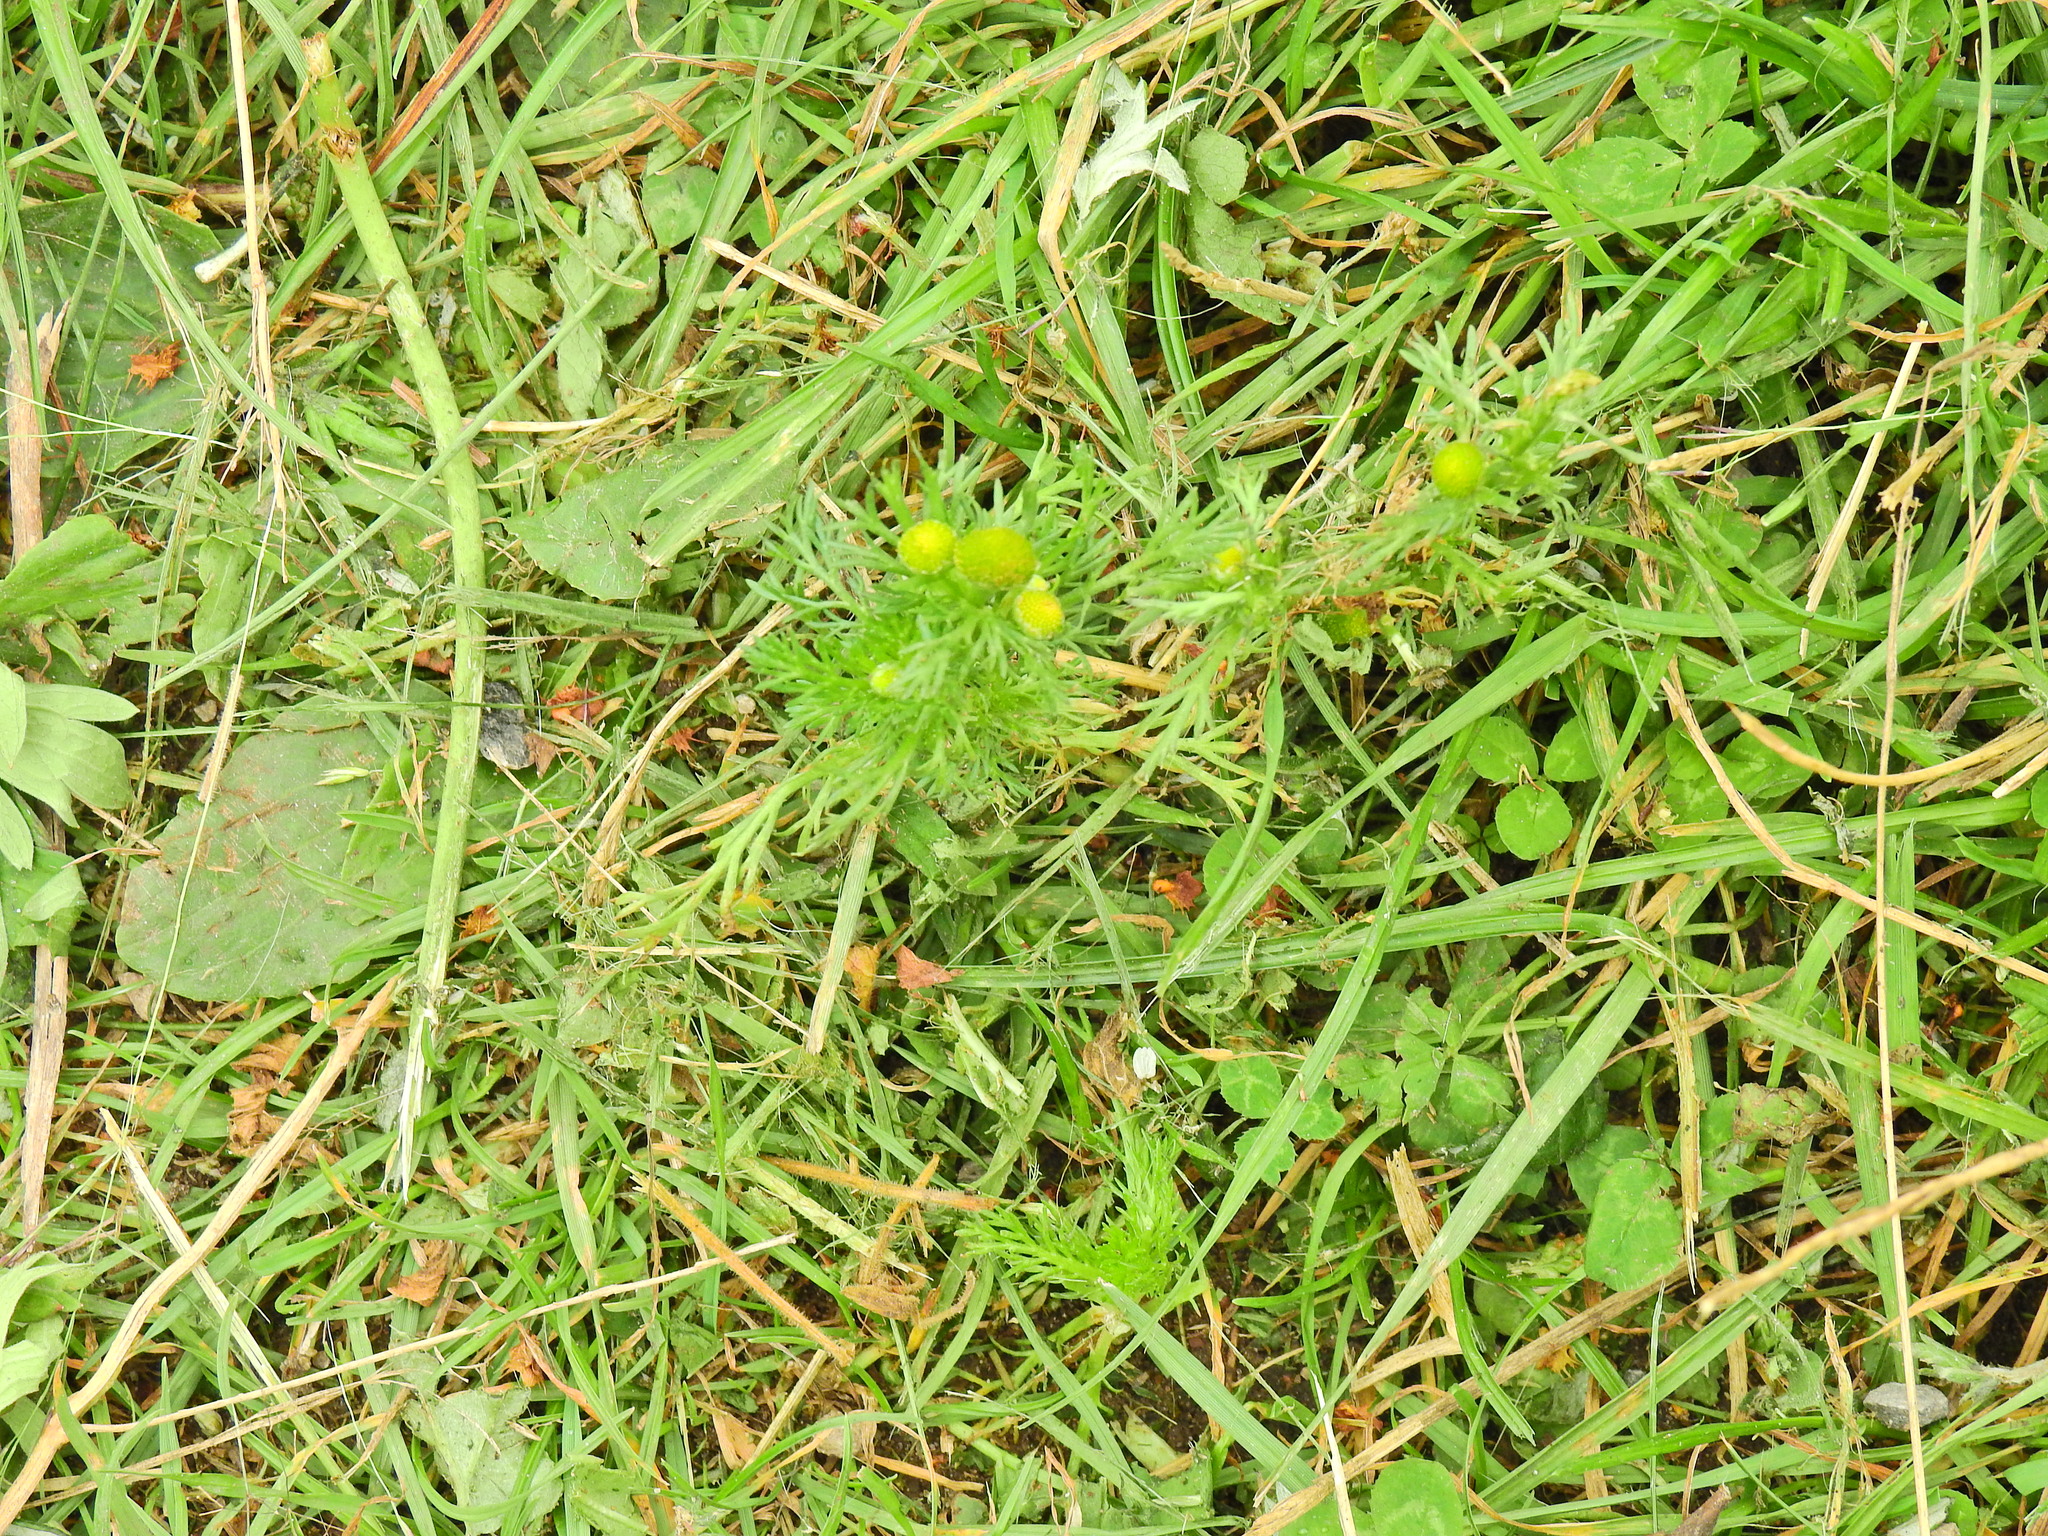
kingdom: Plantae
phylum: Tracheophyta
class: Magnoliopsida
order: Asterales
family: Asteraceae
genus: Matricaria
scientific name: Matricaria discoidea
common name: Disc mayweed
